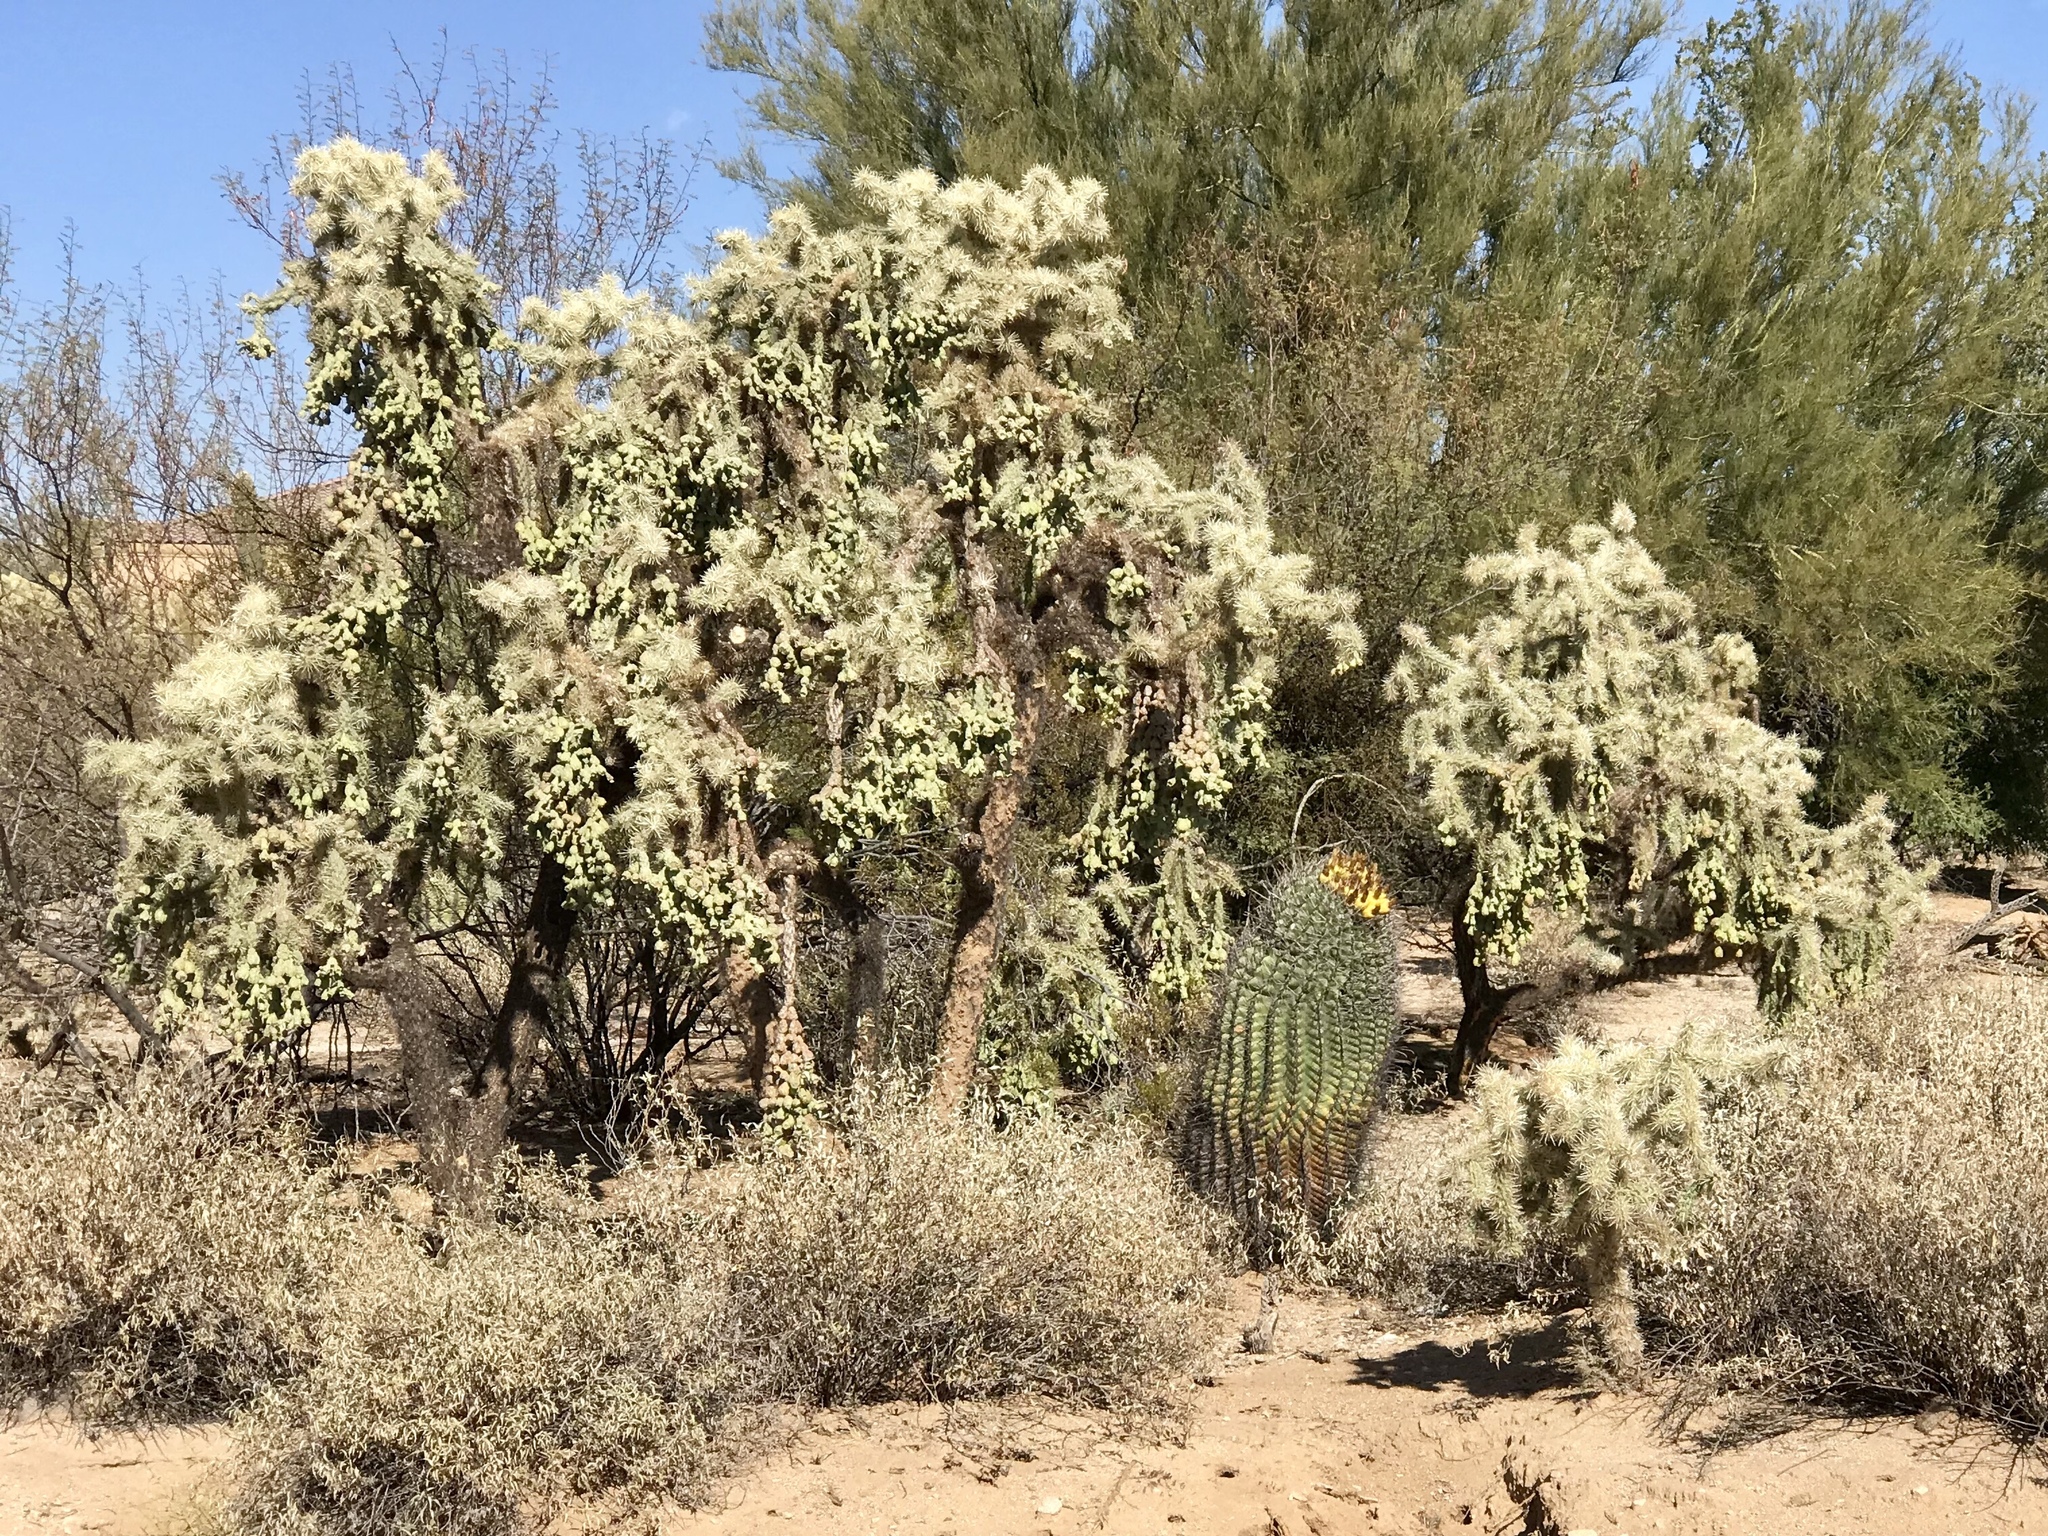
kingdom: Plantae
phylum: Tracheophyta
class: Magnoliopsida
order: Caryophyllales
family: Cactaceae
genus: Cylindropuntia
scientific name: Cylindropuntia fulgida
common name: Jumping cholla
